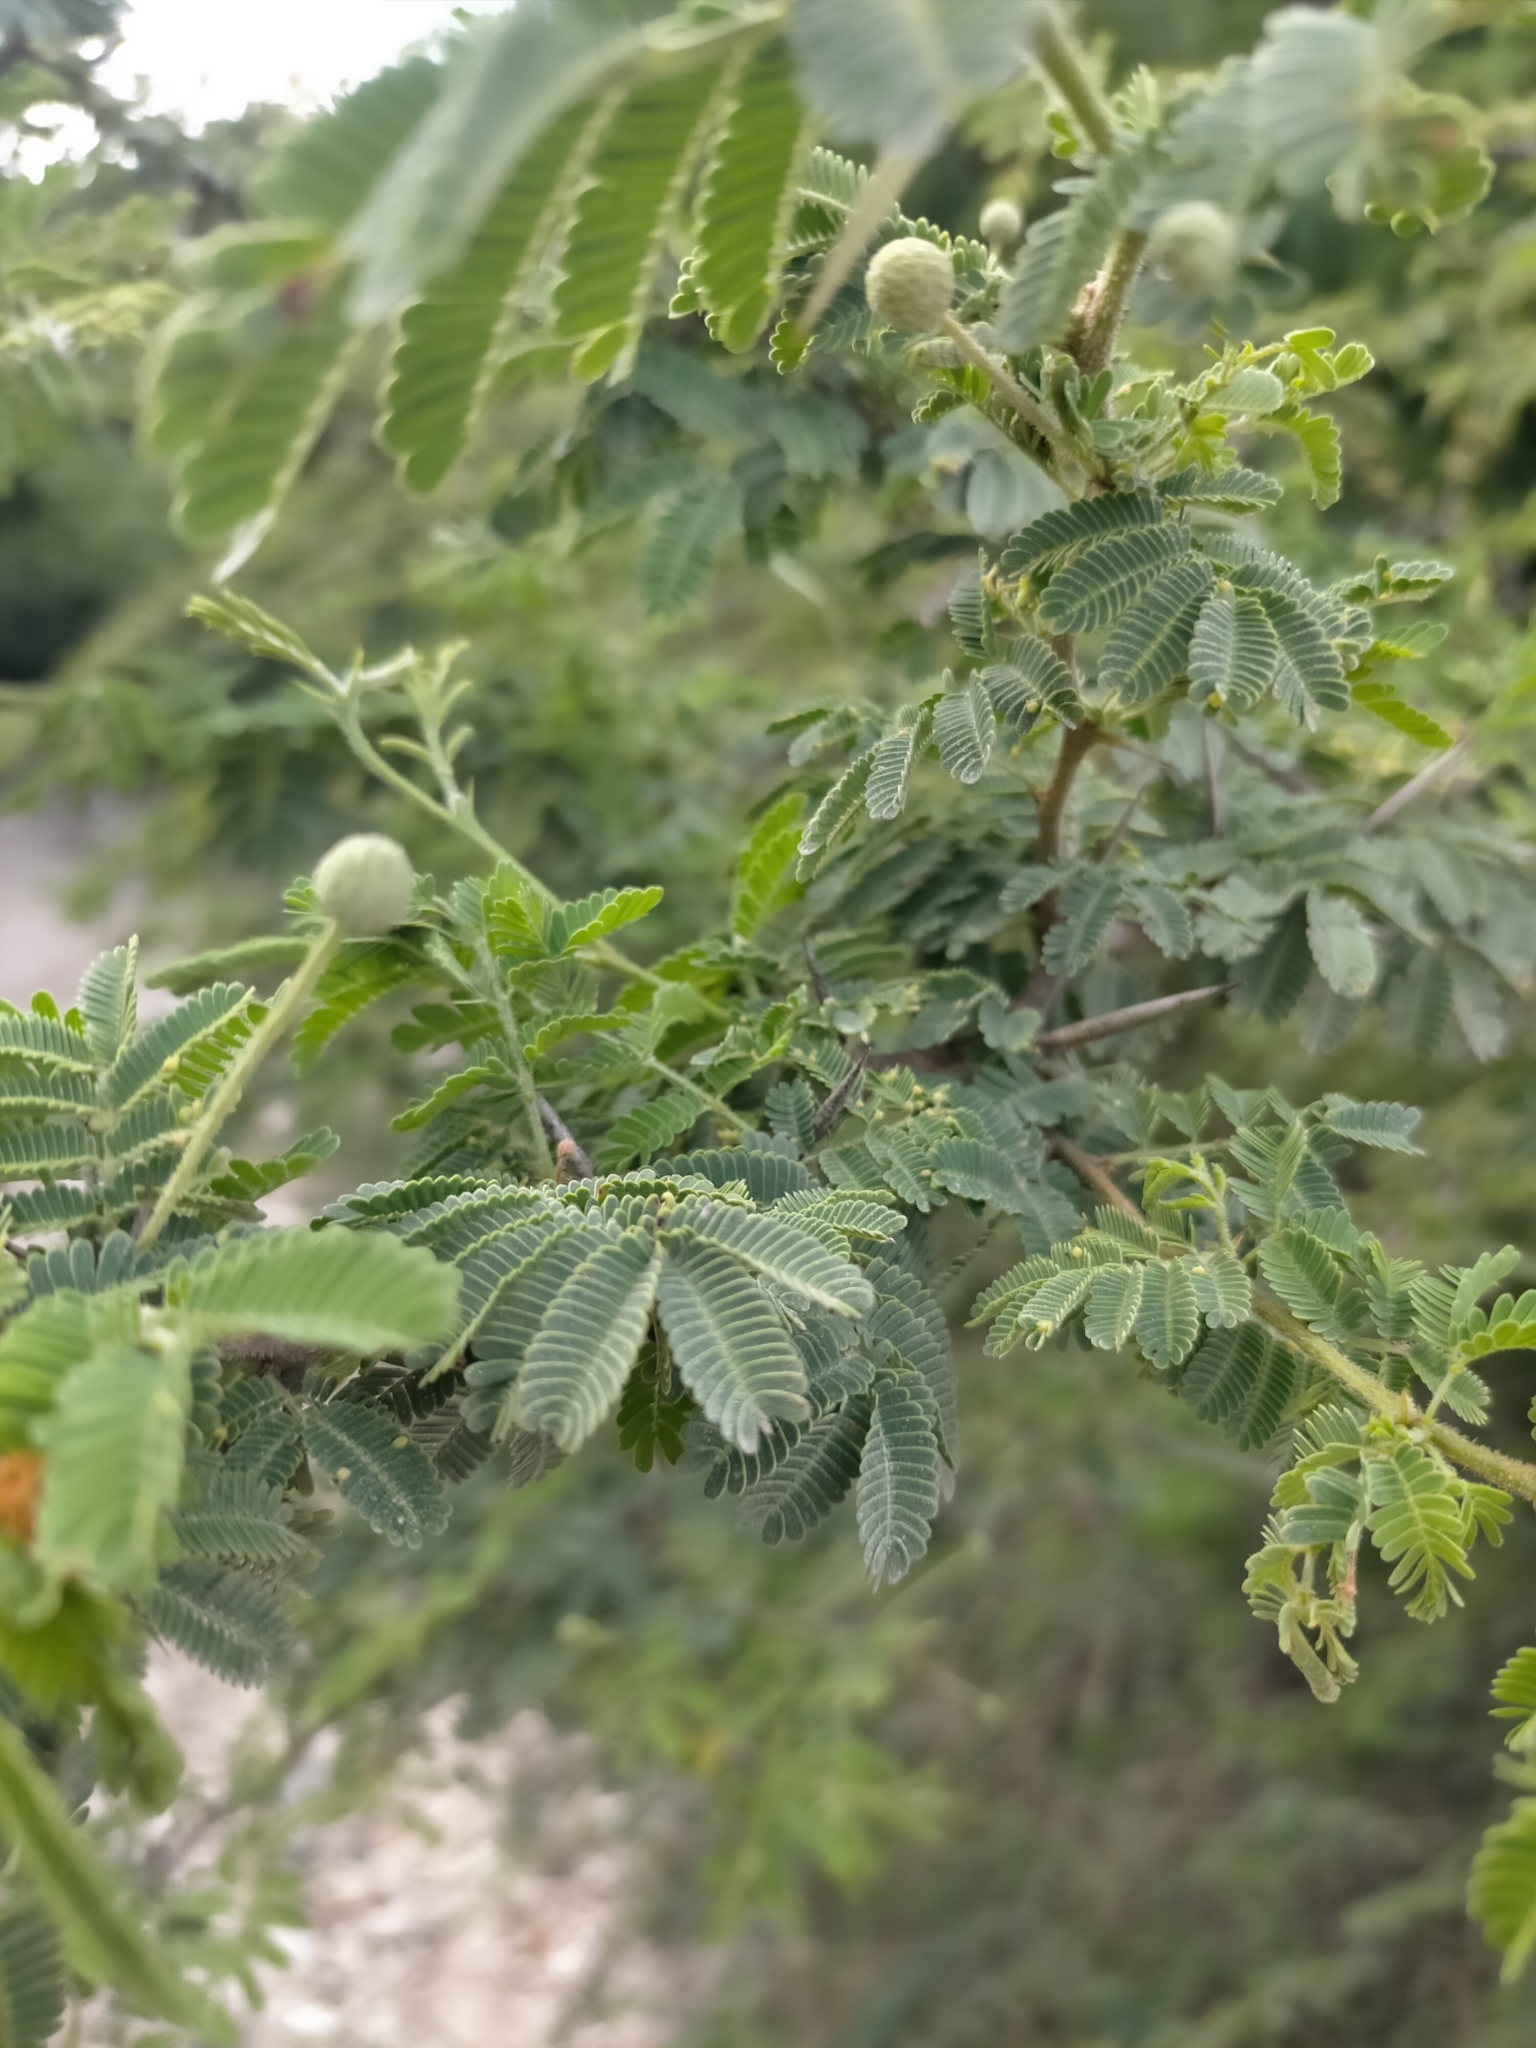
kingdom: Plantae
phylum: Tracheophyta
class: Magnoliopsida
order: Fabales
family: Fabaceae
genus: Vachellia
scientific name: Vachellia tortuosa
